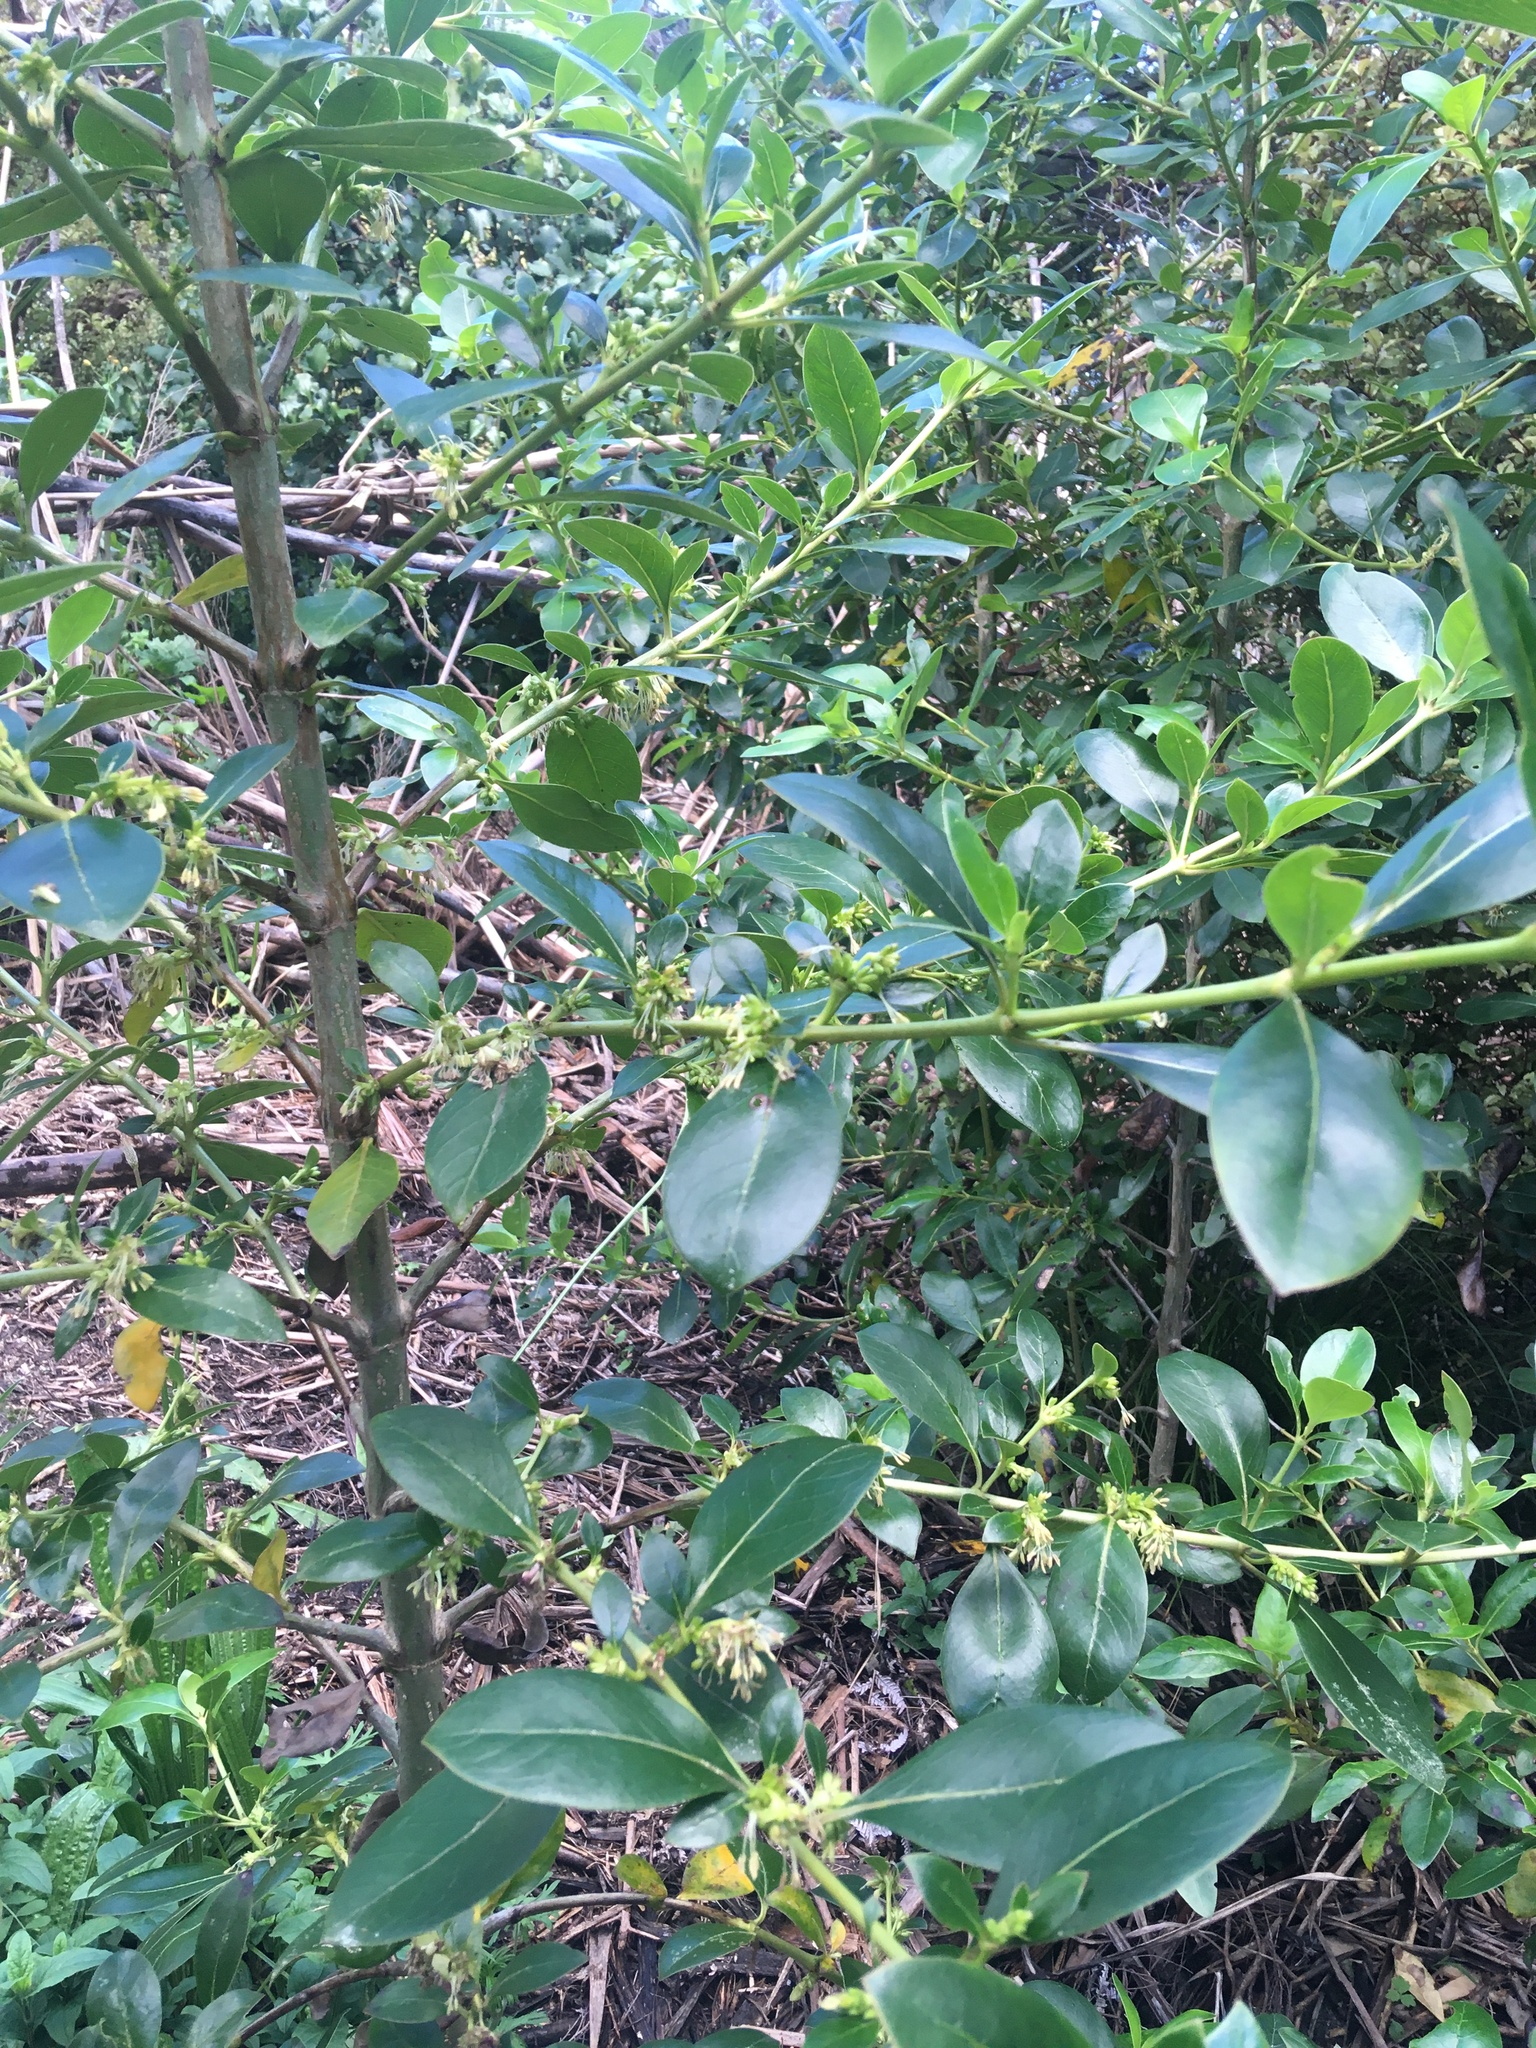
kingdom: Plantae
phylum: Tracheophyta
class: Magnoliopsida
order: Gentianales
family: Rubiaceae
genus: Coprosma
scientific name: Coprosma robusta
